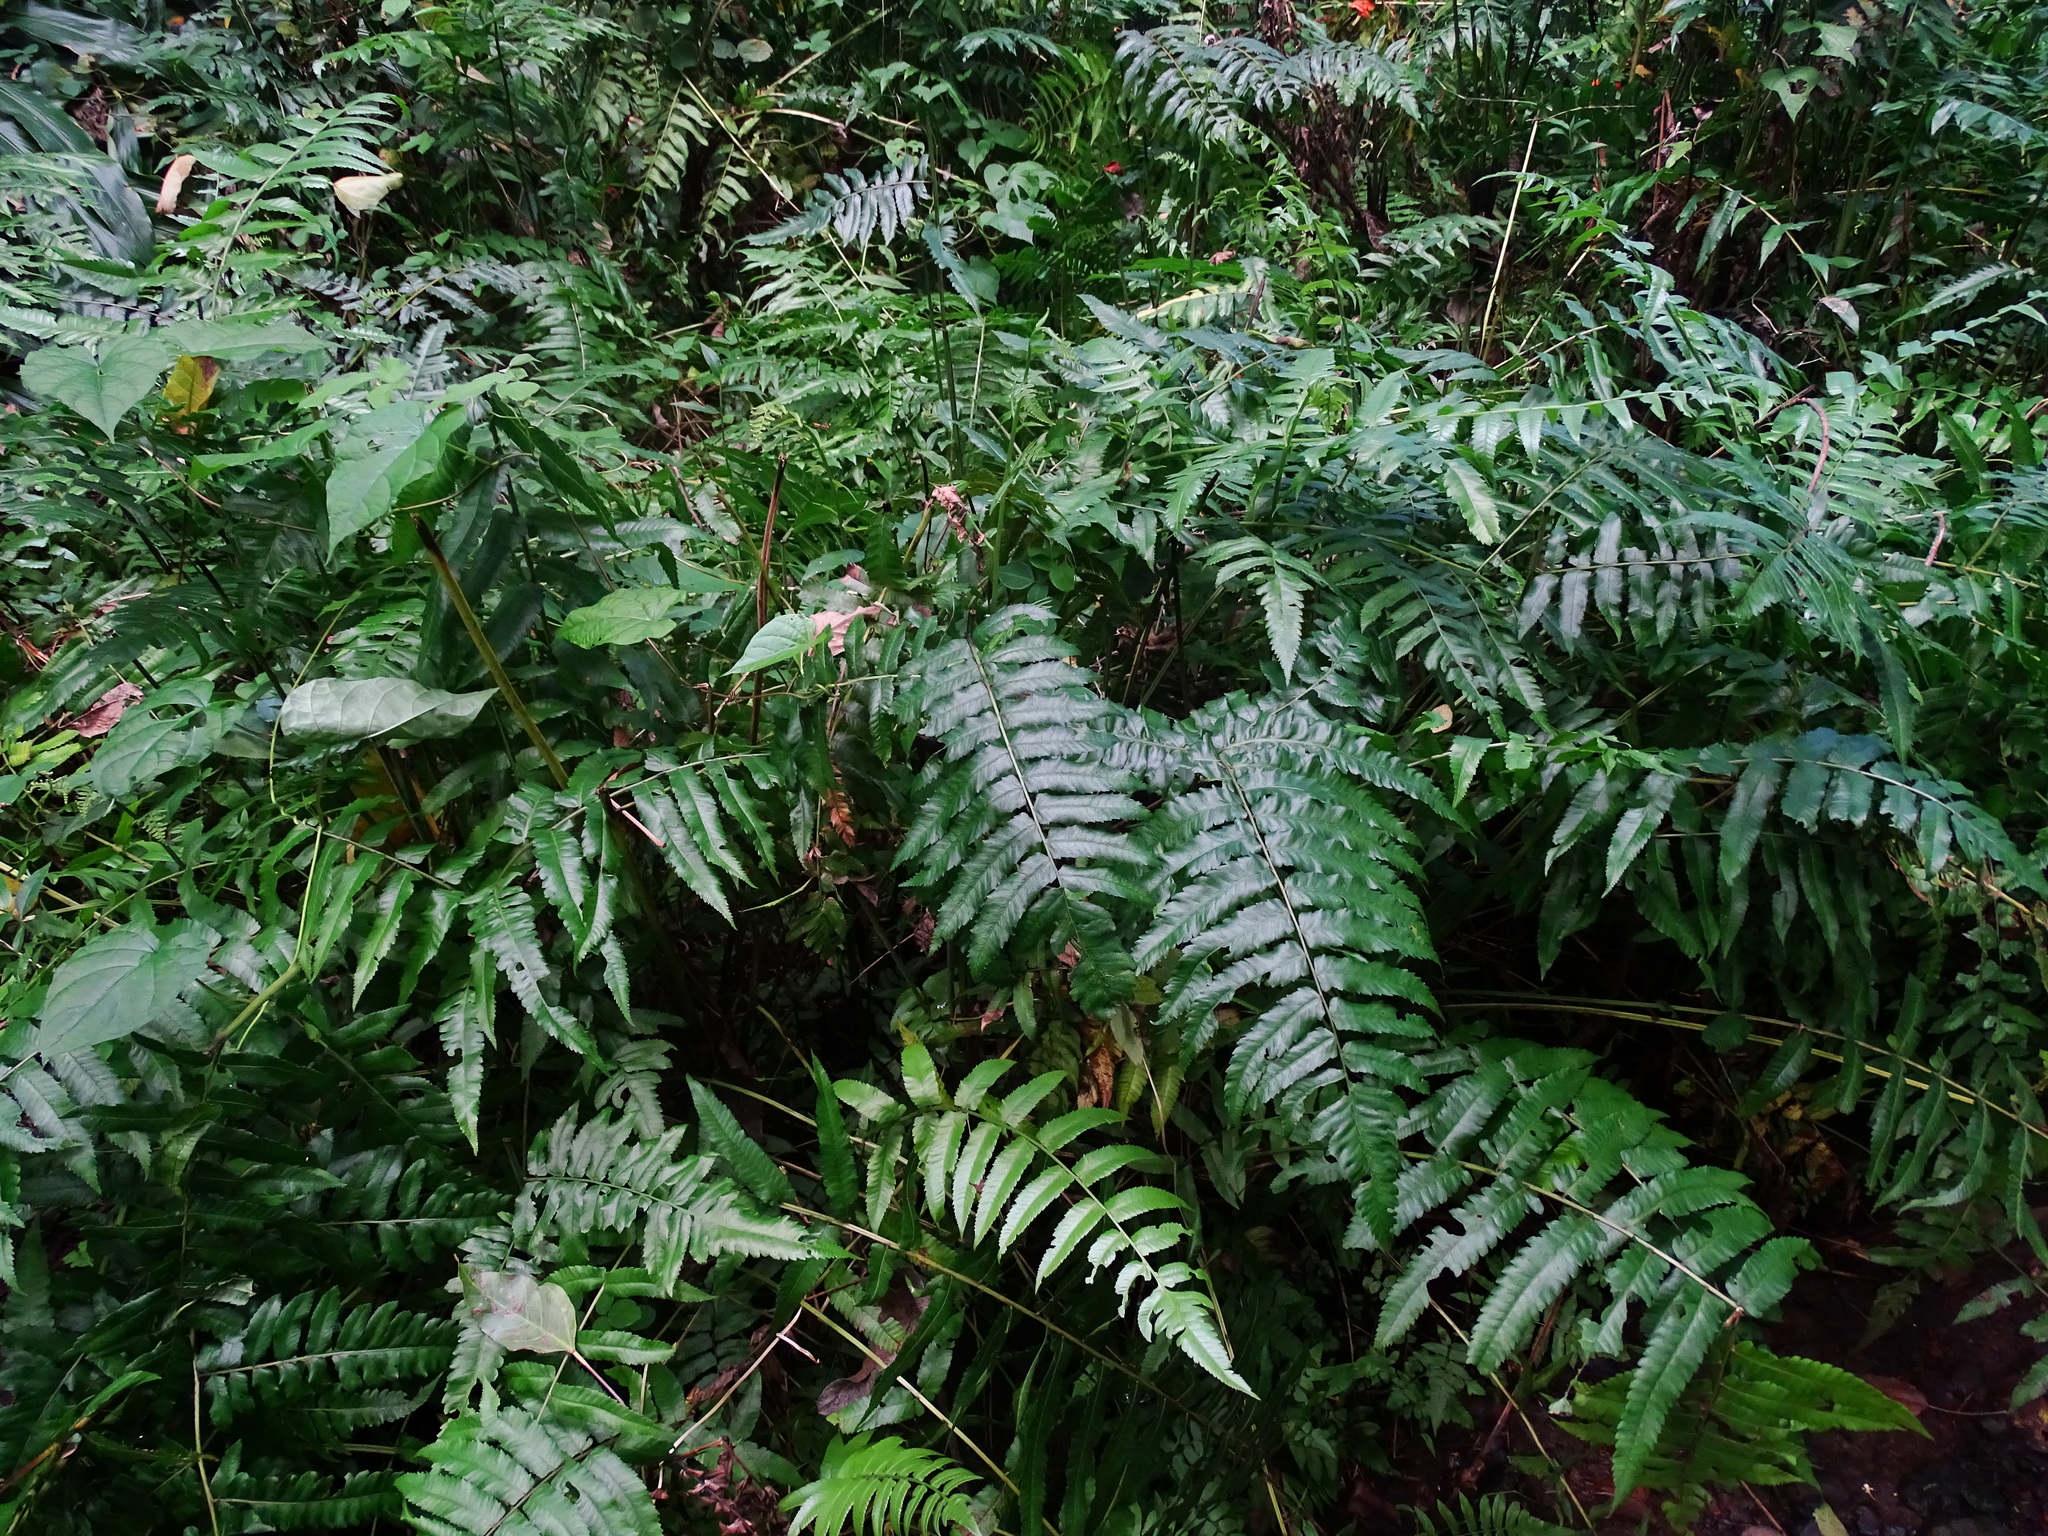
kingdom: Plantae
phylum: Tracheophyta
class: Polypodiopsida
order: Polypodiales
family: Athyriaceae
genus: Diplazium
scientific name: Diplazium esculentum
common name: Vegetable fern
